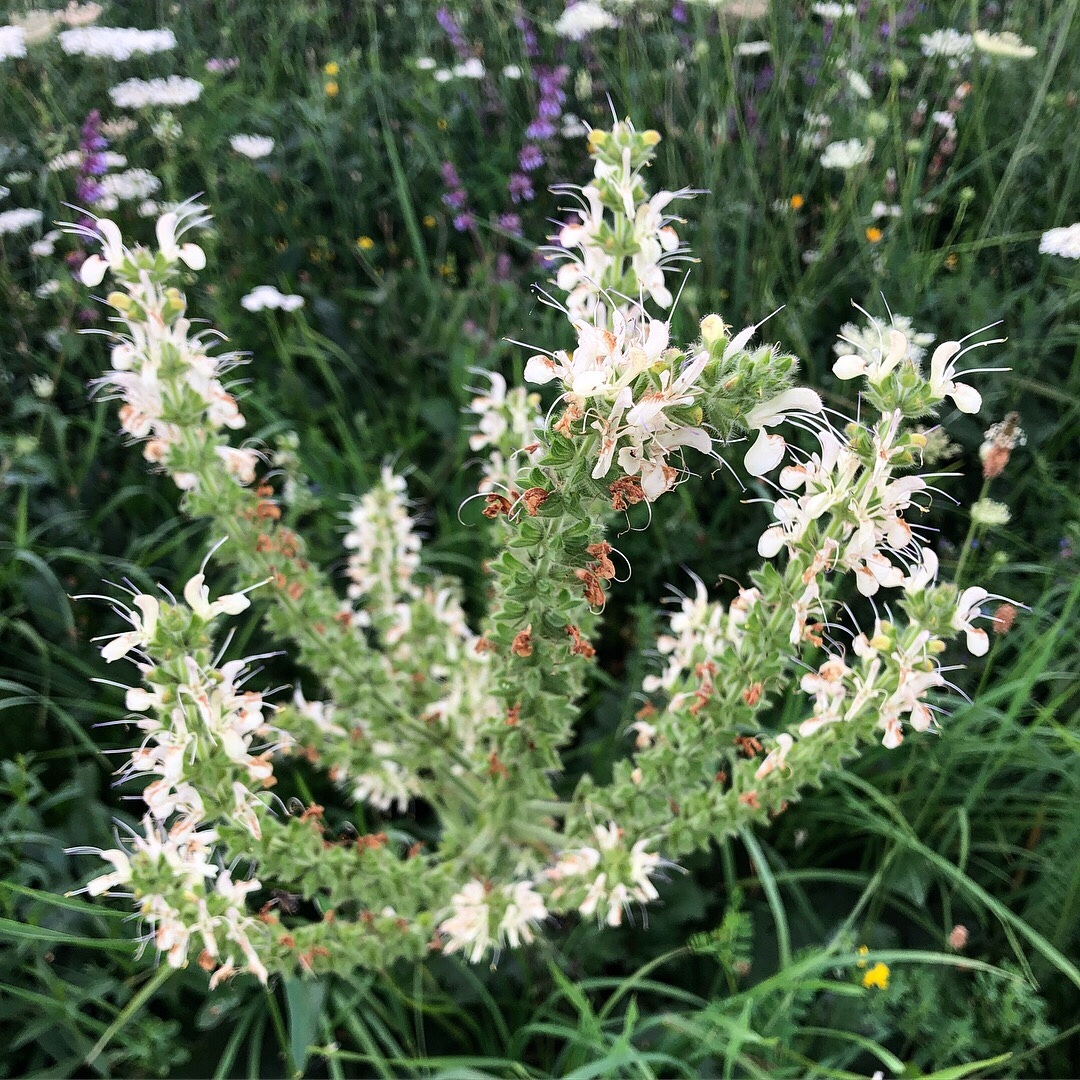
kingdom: Plantae
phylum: Tracheophyta
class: Magnoliopsida
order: Lamiales
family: Lamiaceae
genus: Salvia
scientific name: Salvia austriaca
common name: Austrian sage
